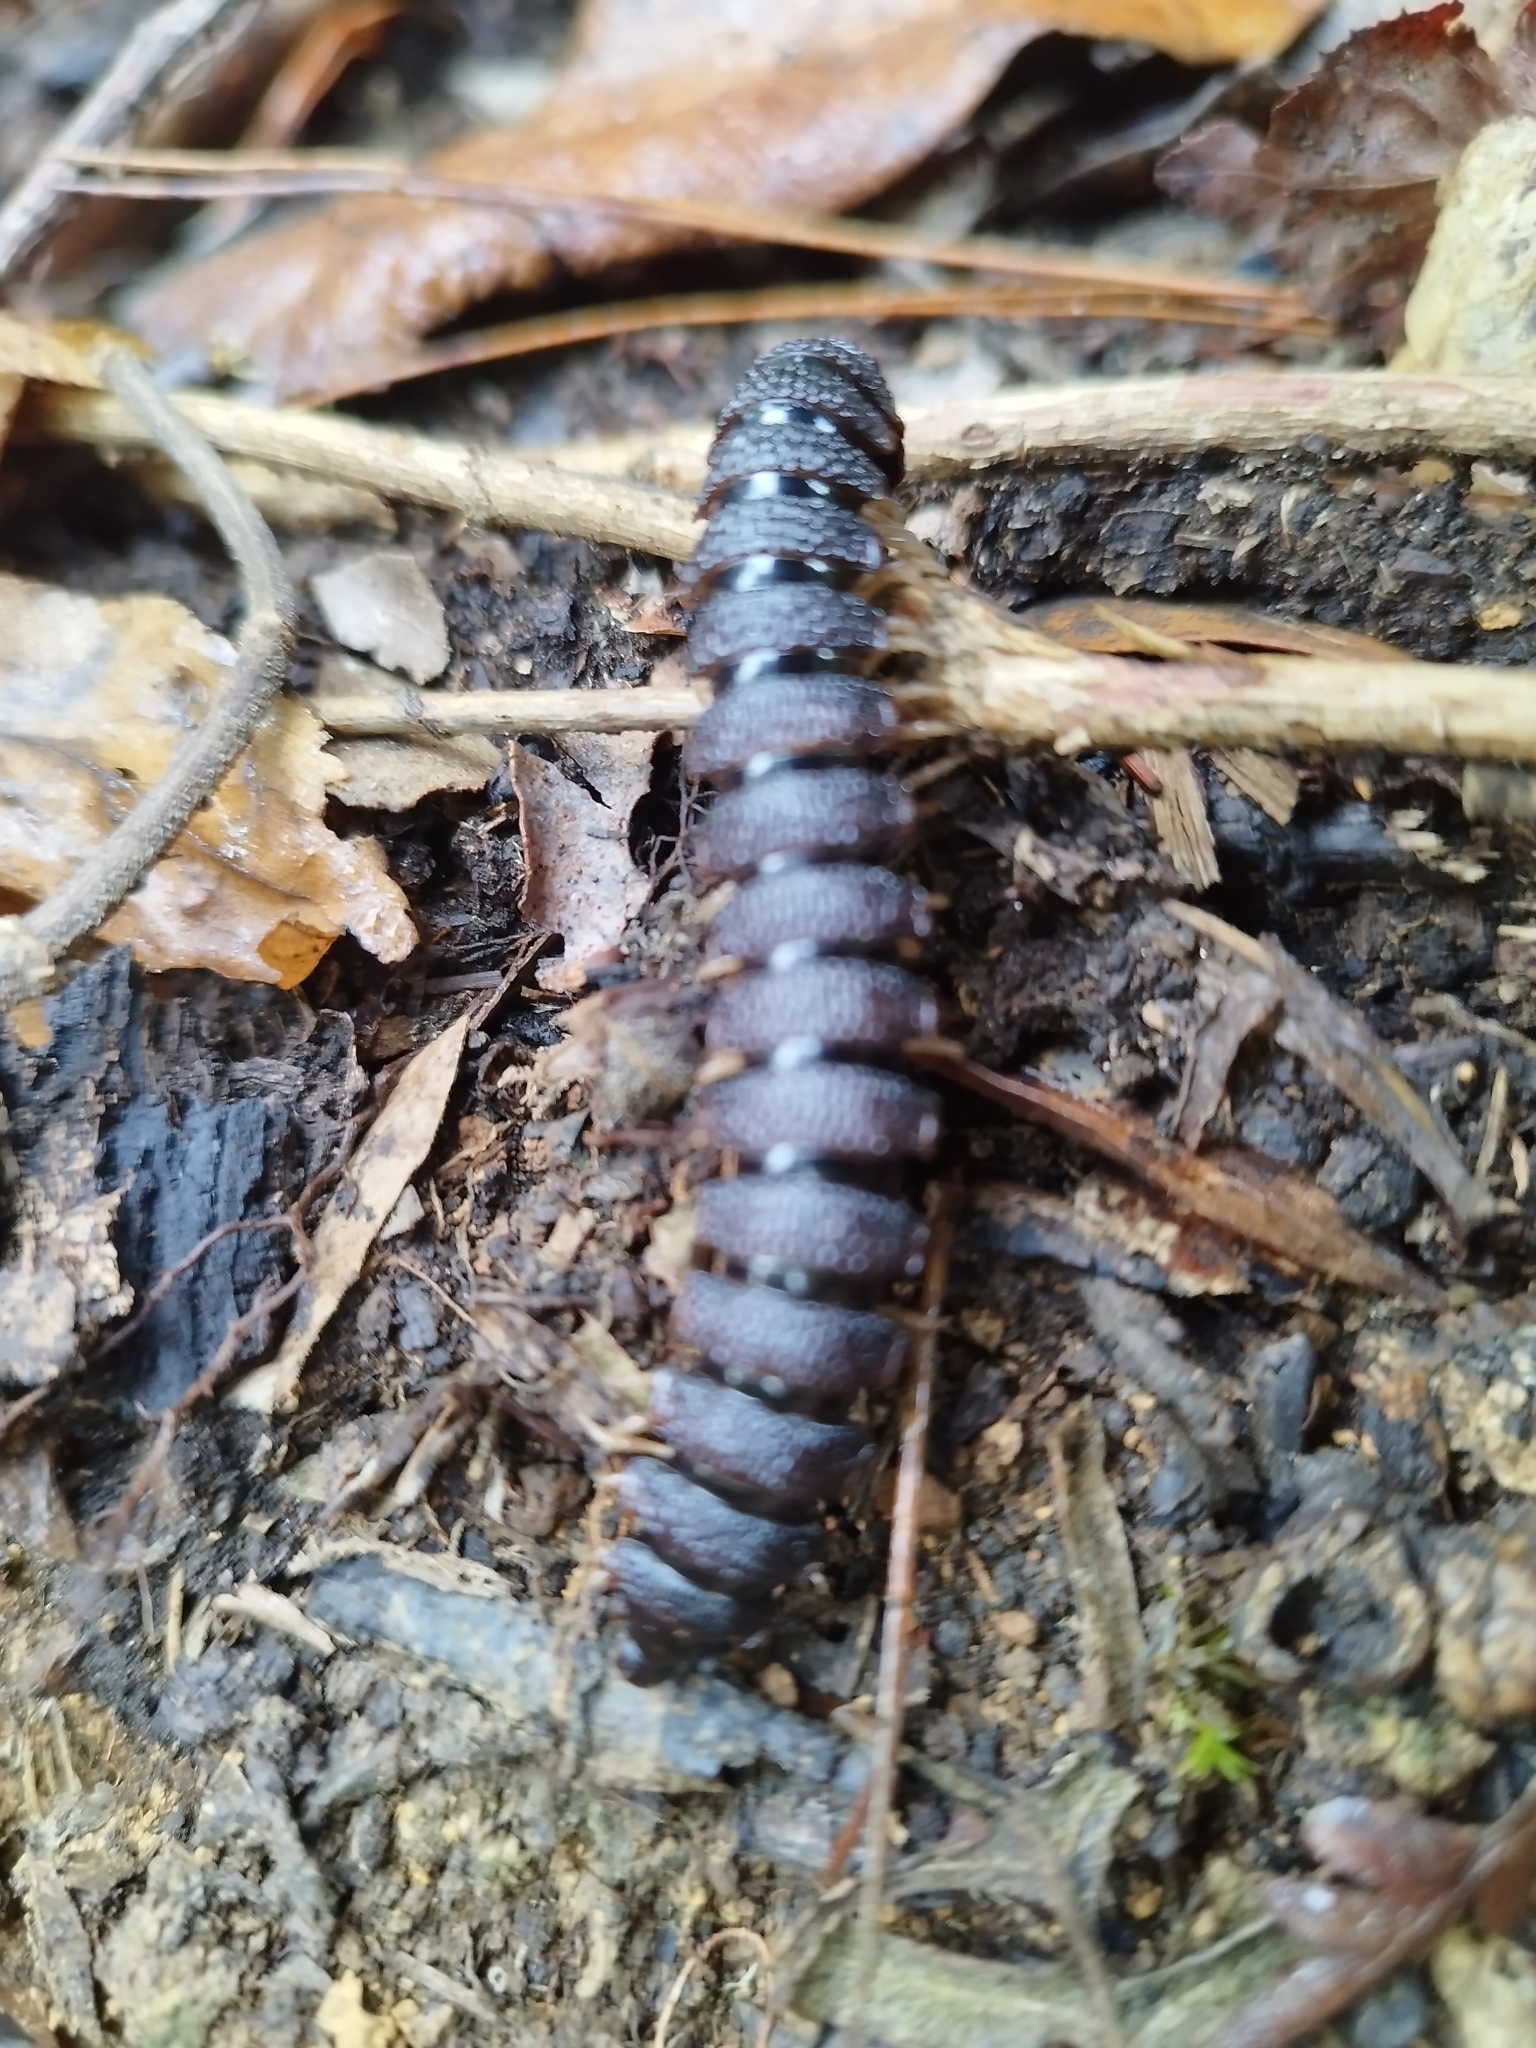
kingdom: Animalia
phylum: Arthropoda
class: Diplopoda
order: Polydesmida
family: Aphelidesmidae
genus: Amplinus
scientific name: Amplinus triramus
